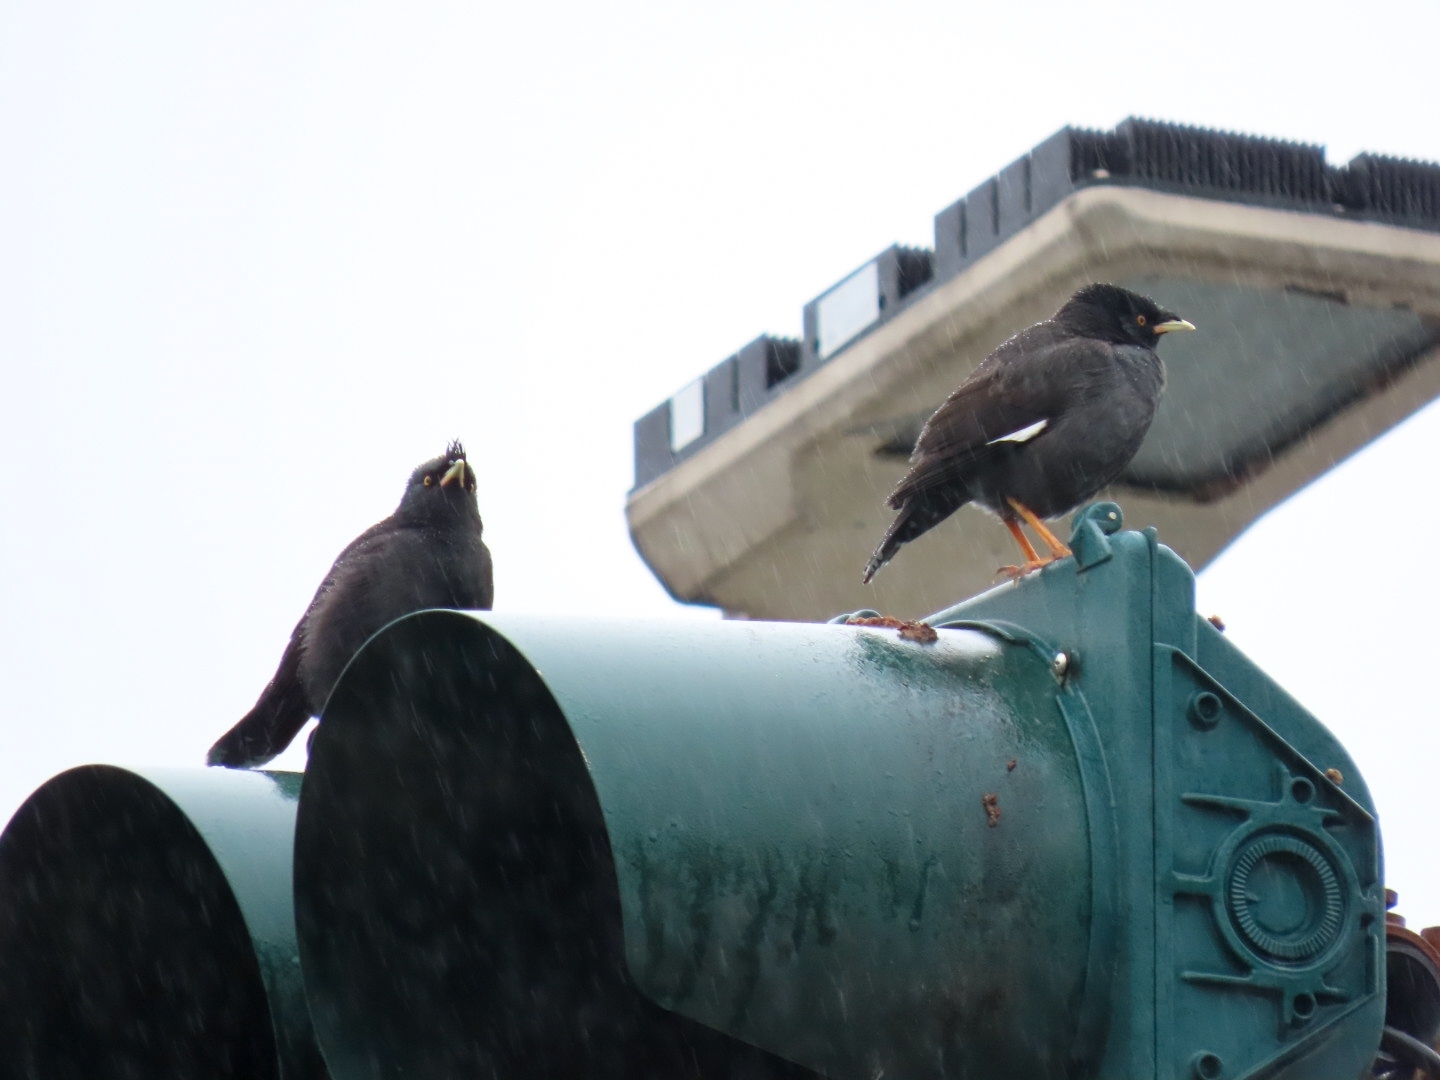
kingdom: Animalia
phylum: Chordata
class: Aves
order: Passeriformes
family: Sturnidae
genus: Acridotheres
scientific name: Acridotheres cristatellus
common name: Crested myna
